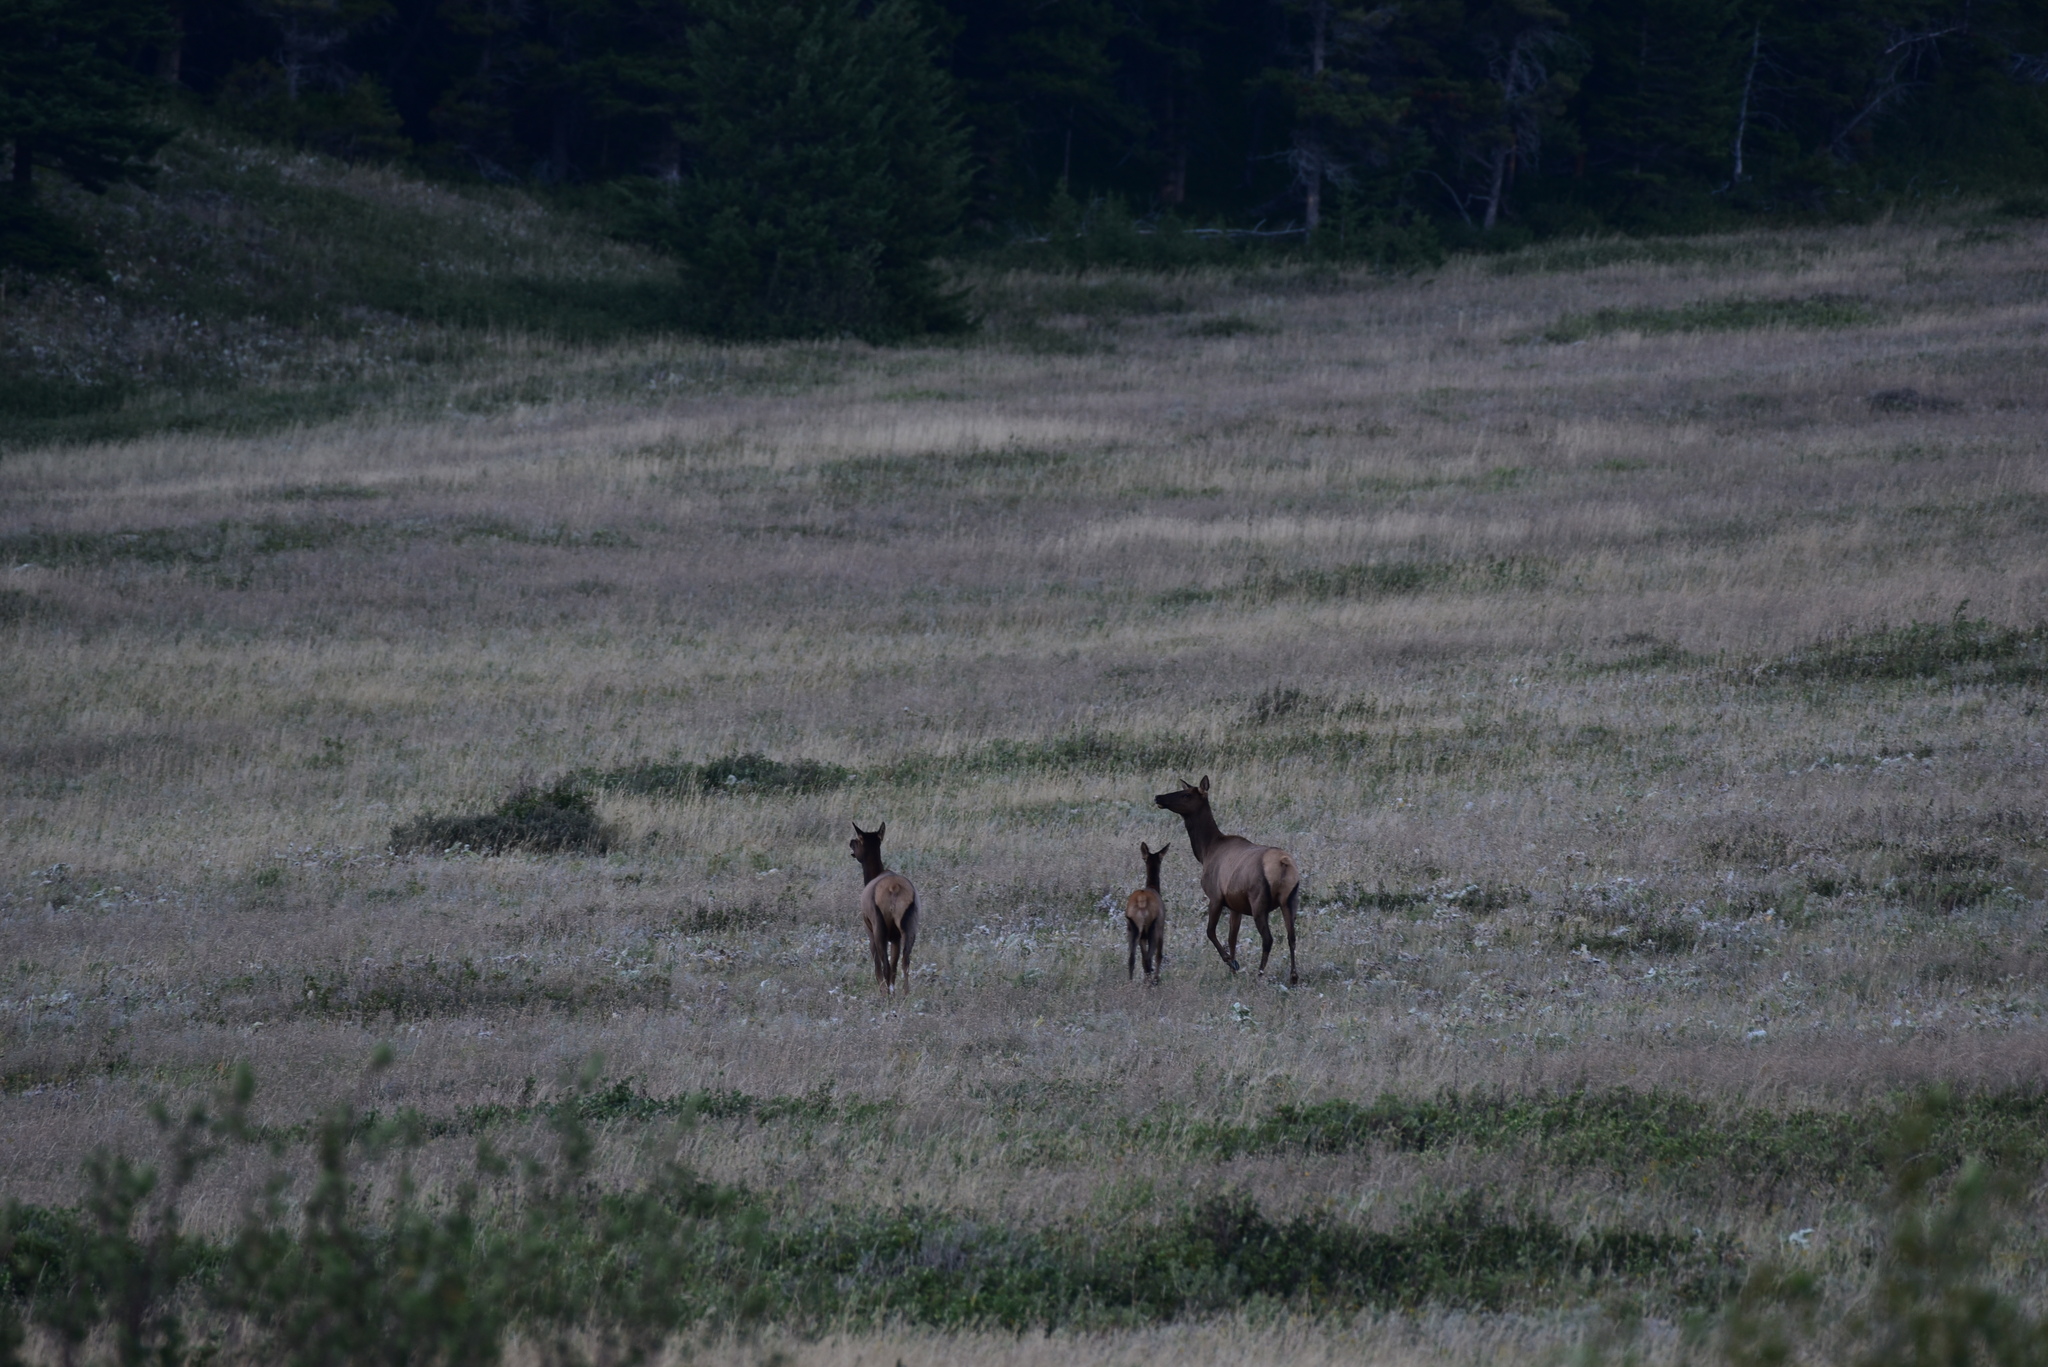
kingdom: Animalia
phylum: Chordata
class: Mammalia
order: Artiodactyla
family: Cervidae
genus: Cervus
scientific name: Cervus elaphus
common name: Red deer
